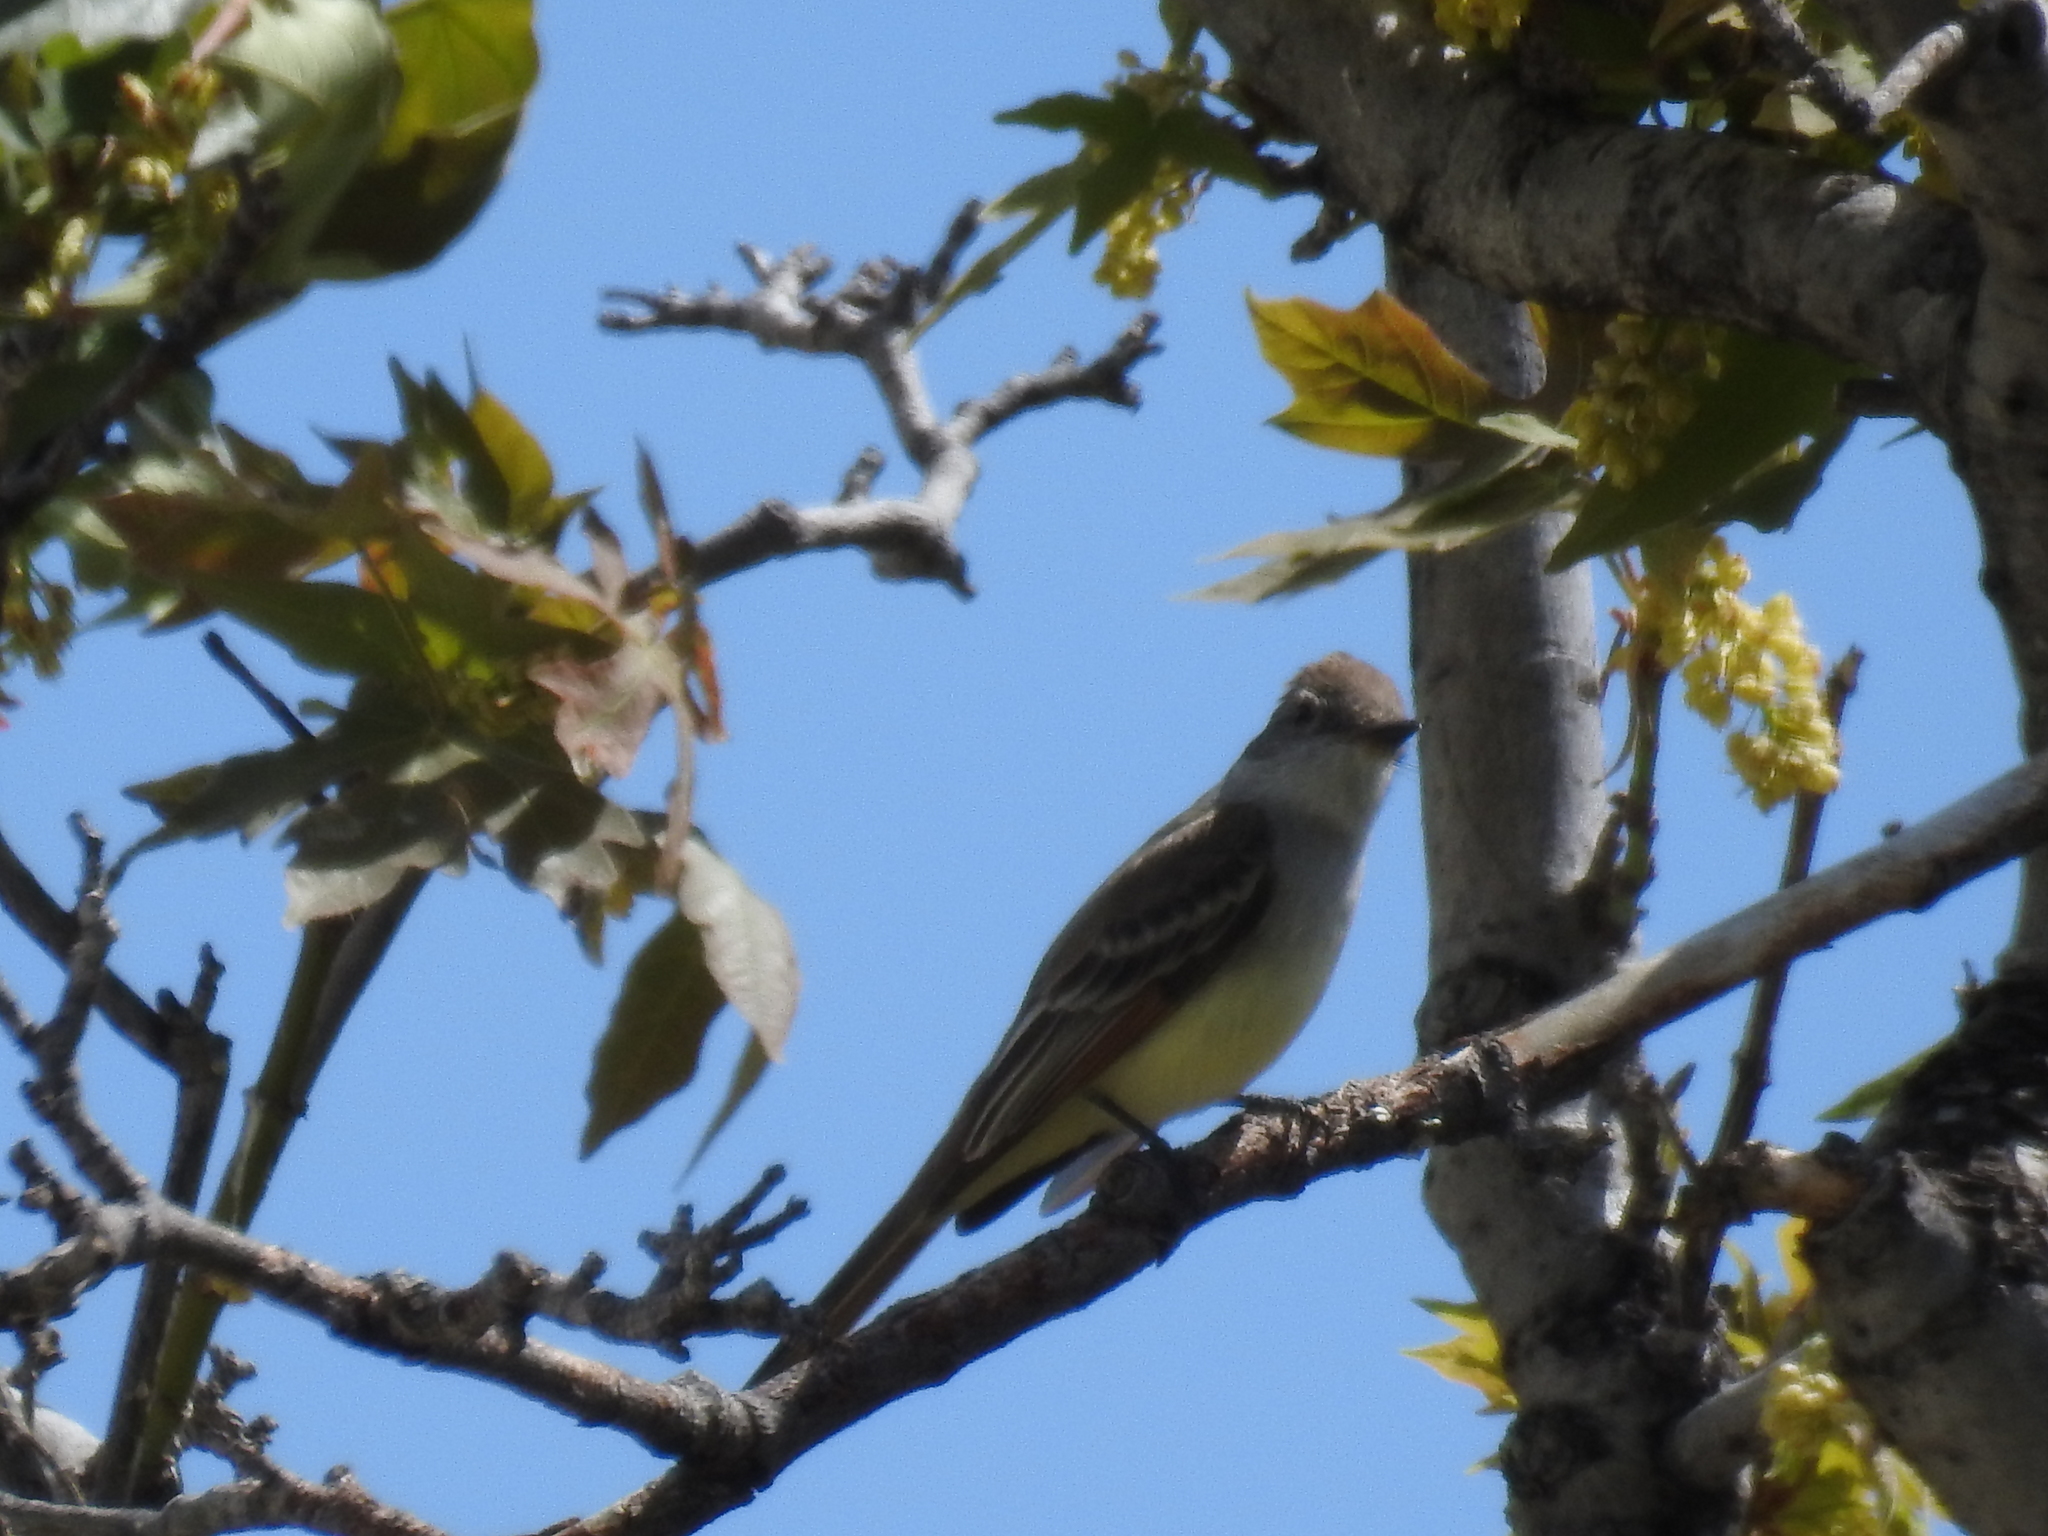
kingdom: Animalia
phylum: Chordata
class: Aves
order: Passeriformes
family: Tyrannidae
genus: Myiarchus
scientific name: Myiarchus cinerascens
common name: Ash-throated flycatcher
